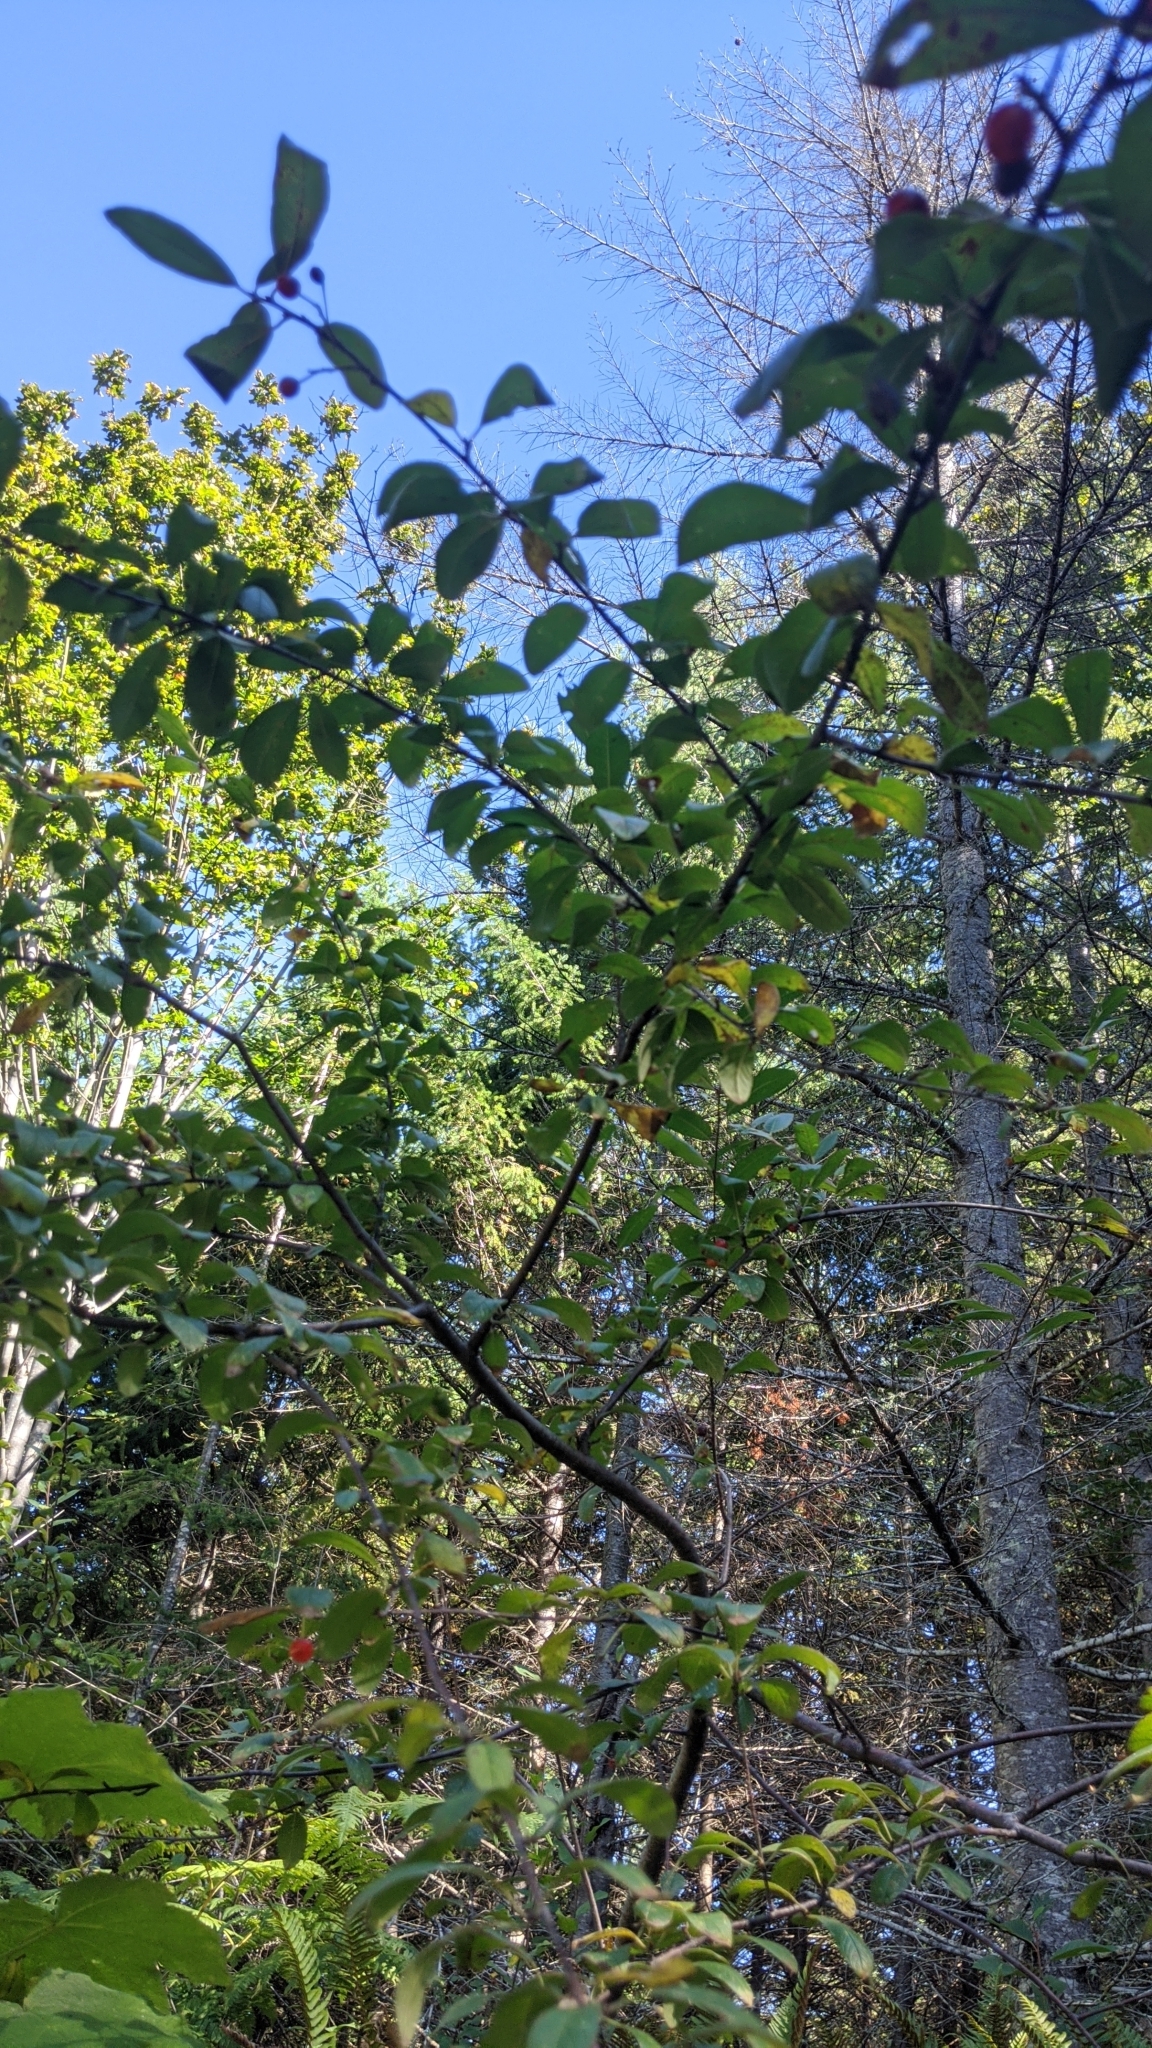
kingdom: Plantae
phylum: Tracheophyta
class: Magnoliopsida
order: Rosales
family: Rosaceae
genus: Prunus
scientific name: Prunus emarginata
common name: Bitter cherry
